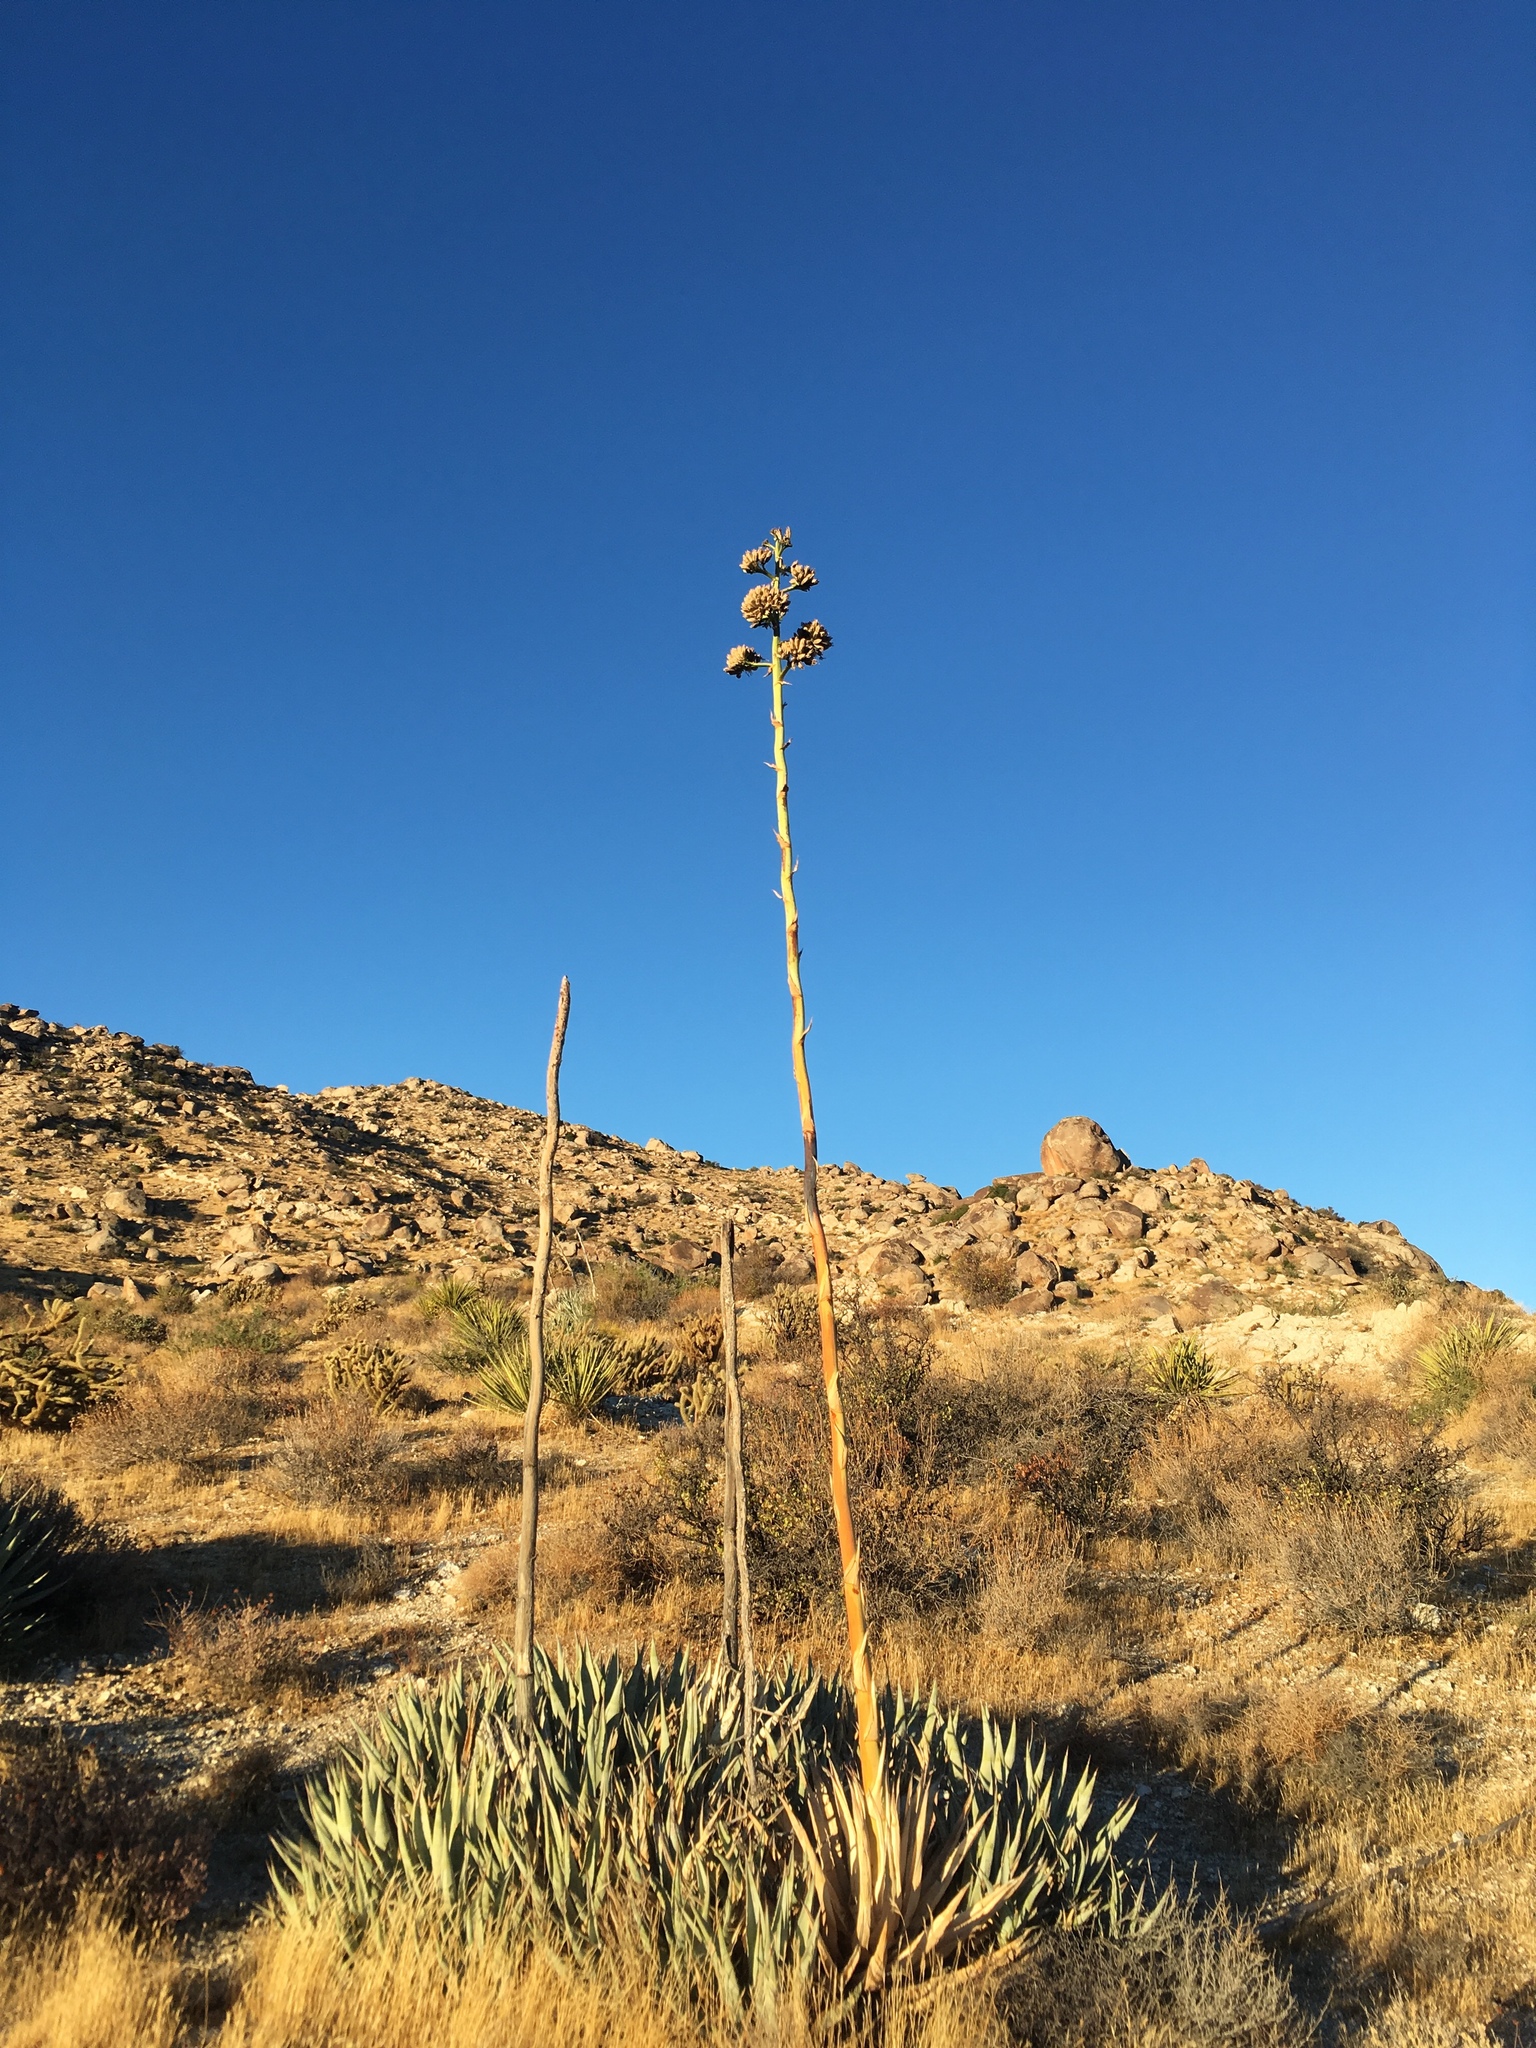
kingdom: Plantae
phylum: Tracheophyta
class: Liliopsida
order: Asparagales
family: Asparagaceae
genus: Agave
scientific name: Agave deserti
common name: Desert agave
